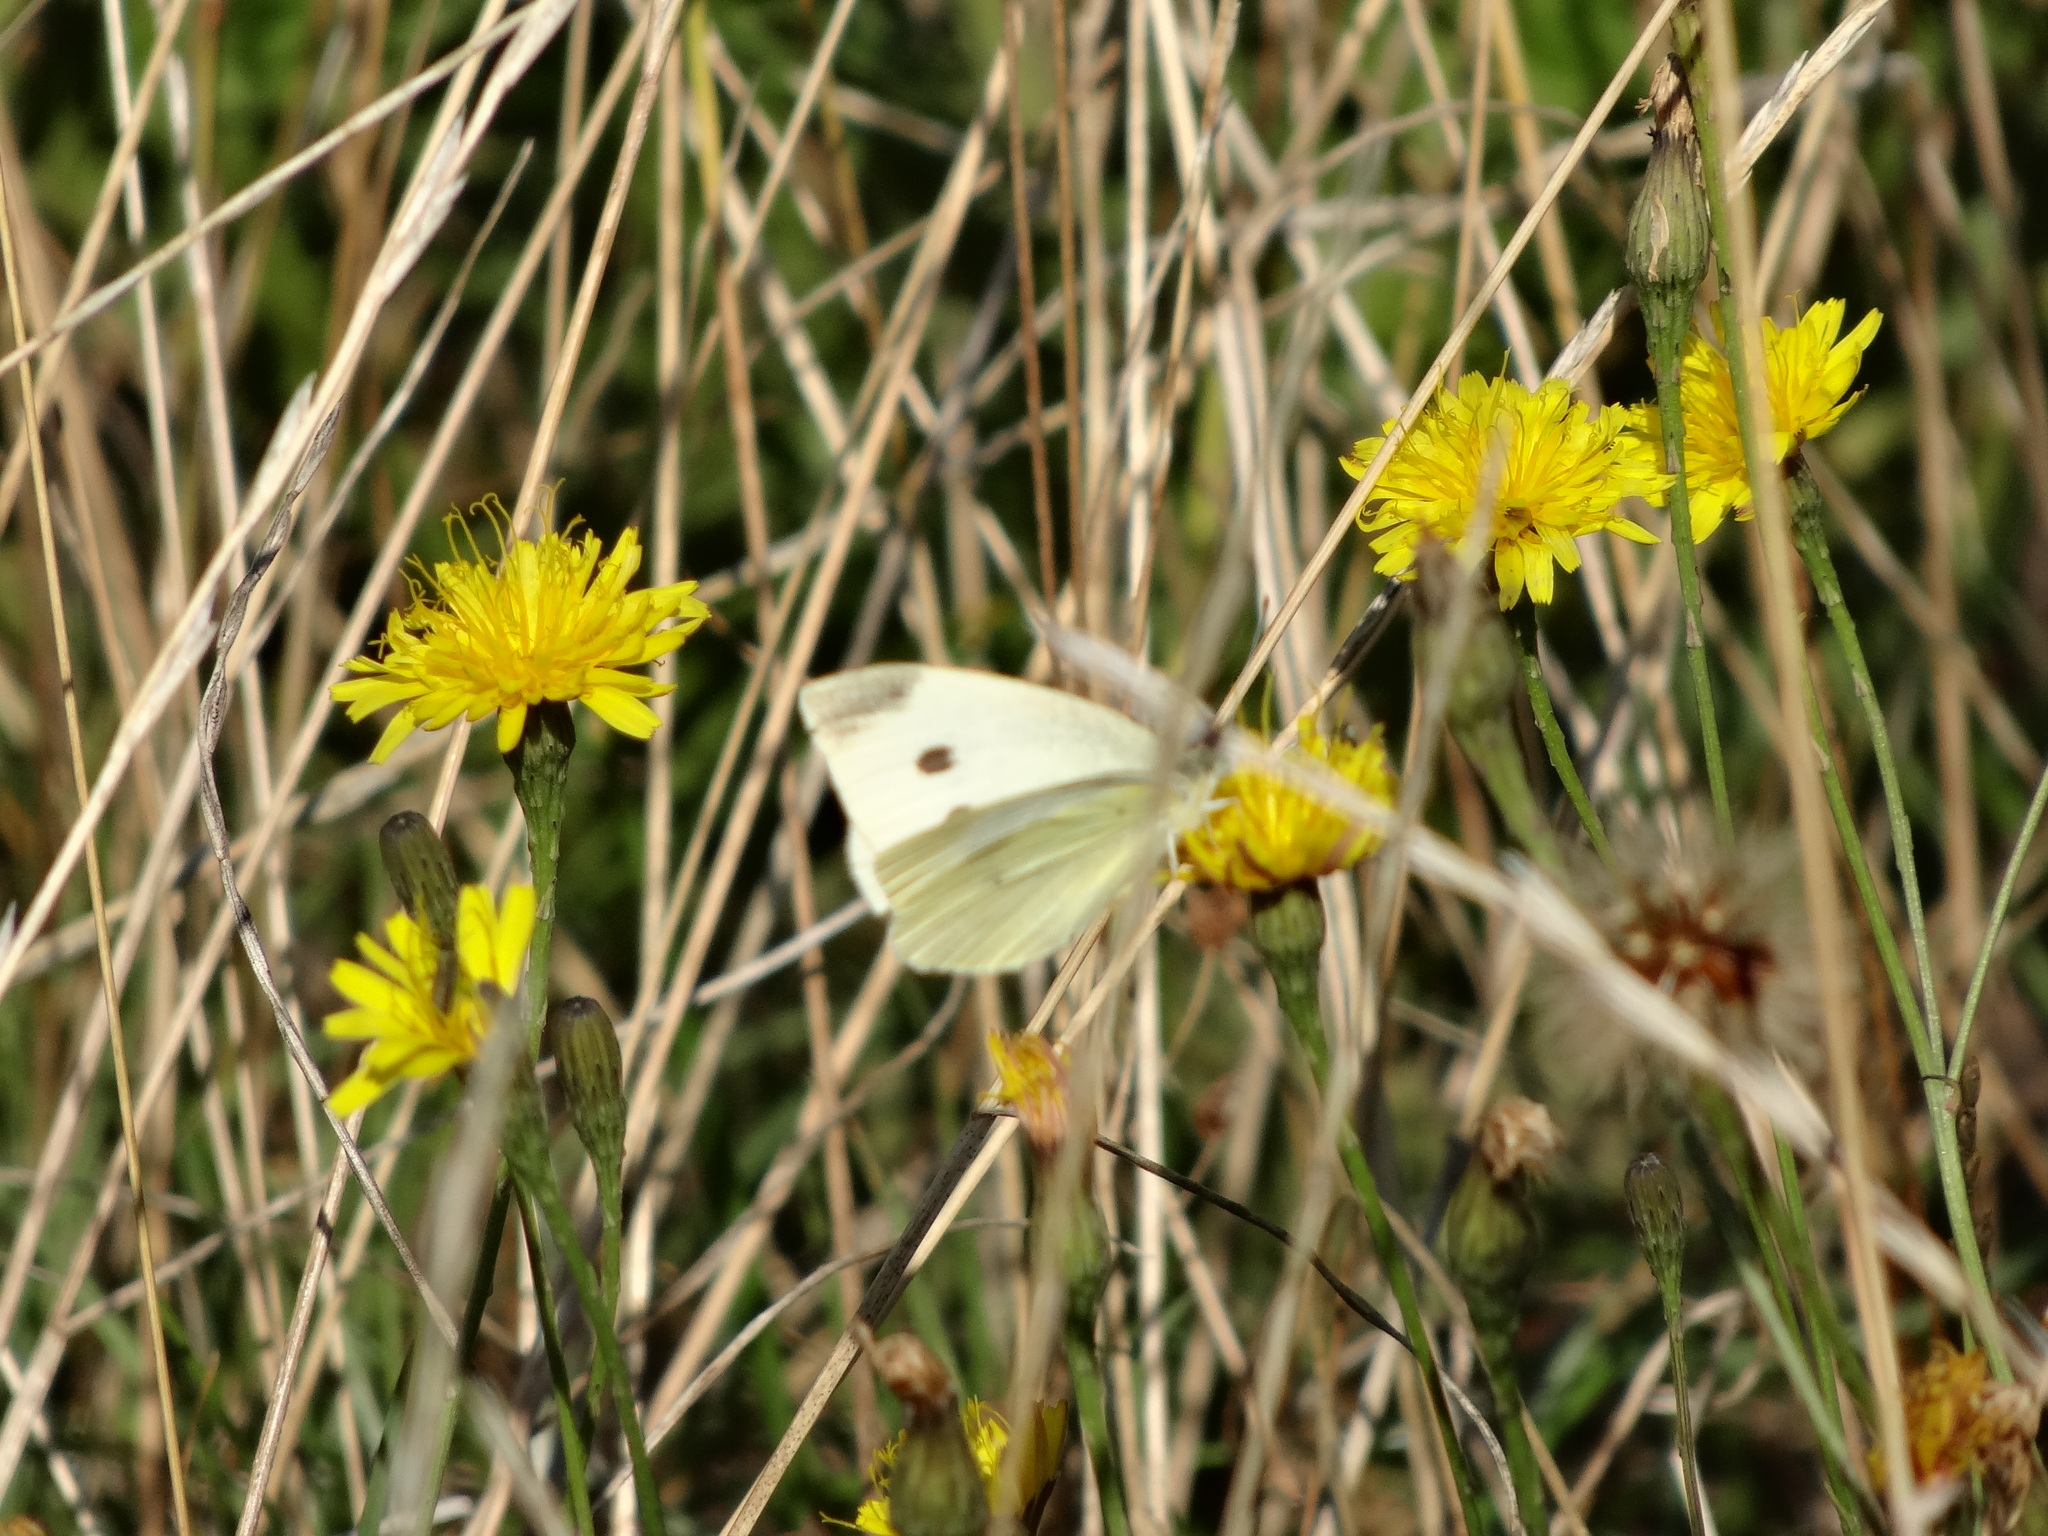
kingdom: Animalia
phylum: Arthropoda
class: Insecta
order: Lepidoptera
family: Pieridae
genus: Pieris
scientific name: Pieris rapae
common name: Small white
